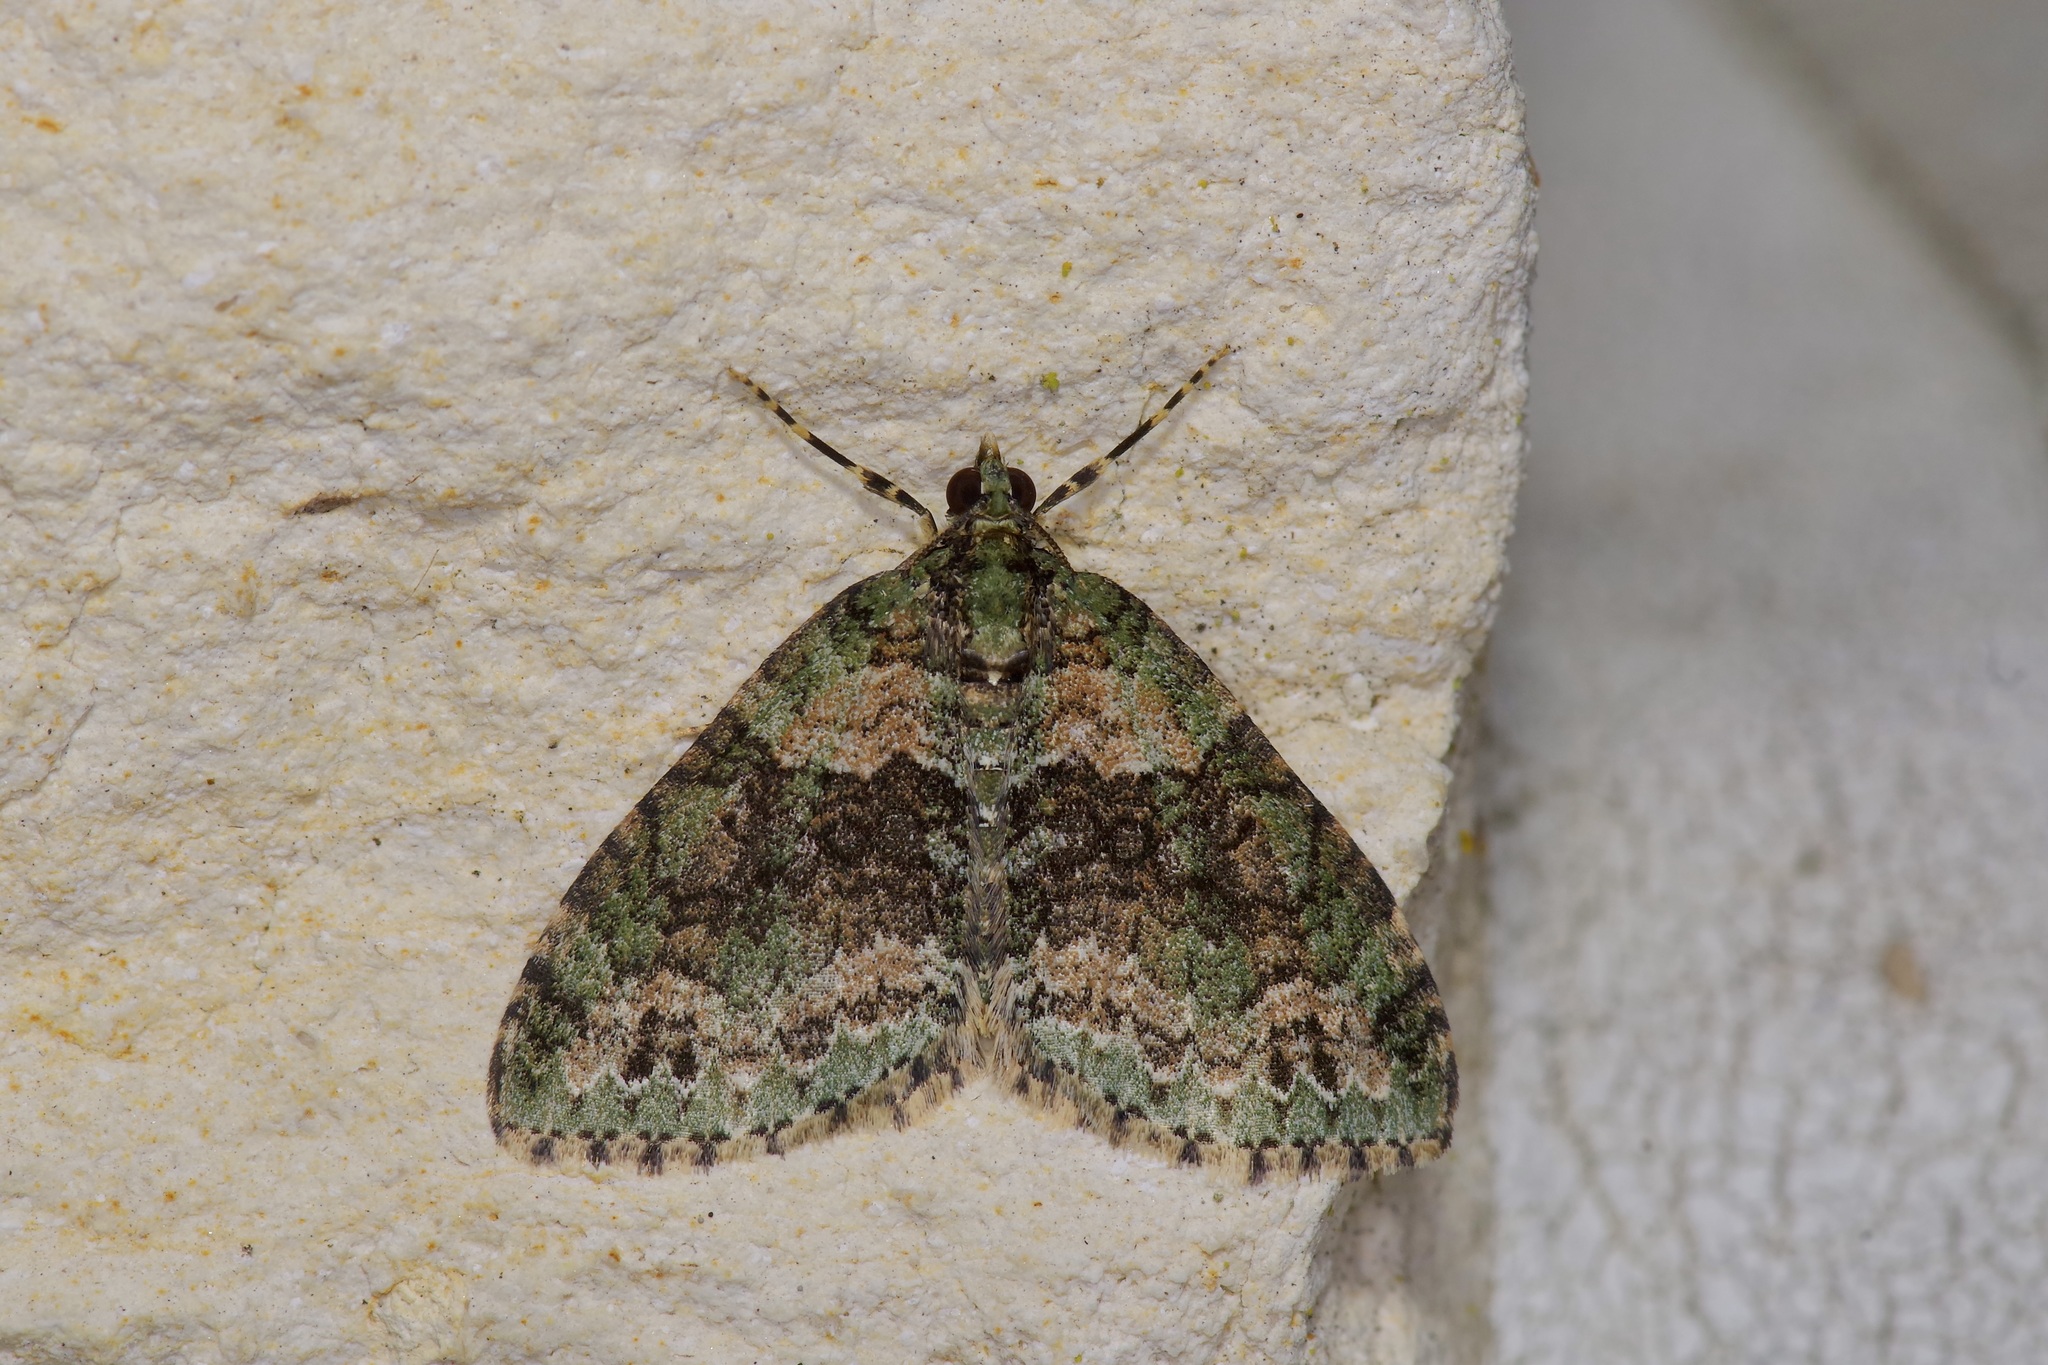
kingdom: Animalia
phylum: Arthropoda
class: Insecta
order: Lepidoptera
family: Geometridae
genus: Hammaptera
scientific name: Hammaptera parinotata
